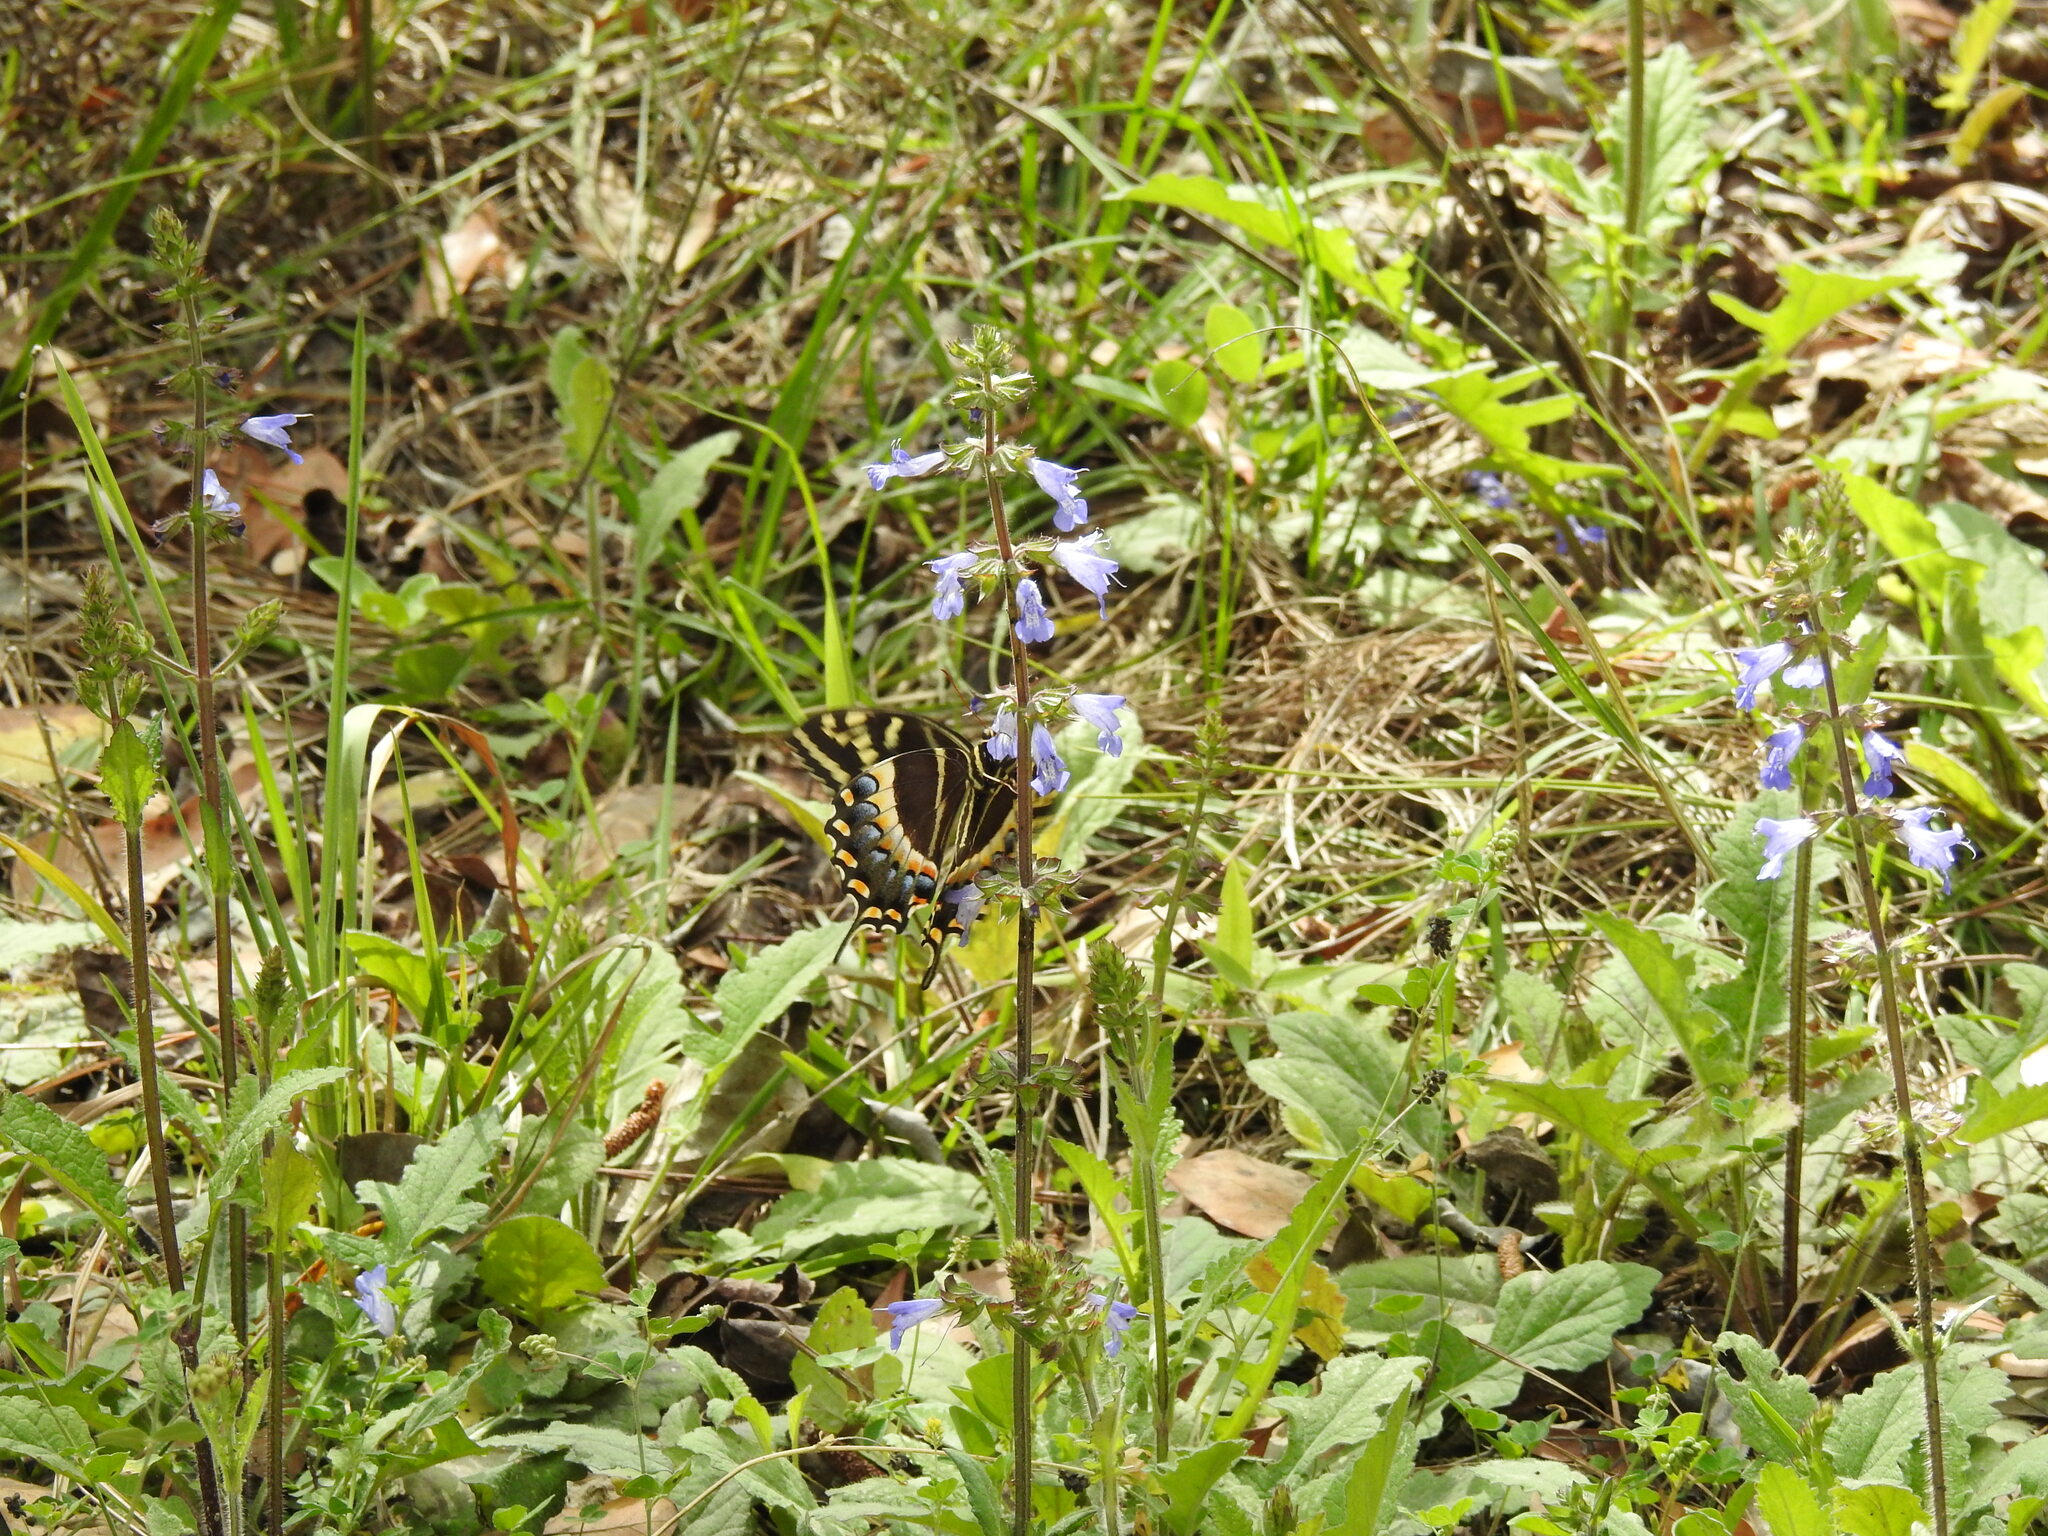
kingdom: Animalia
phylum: Arthropoda
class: Insecta
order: Lepidoptera
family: Papilionidae
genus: Papilio
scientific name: Papilio palamedes
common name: Palamedes swallowtail
